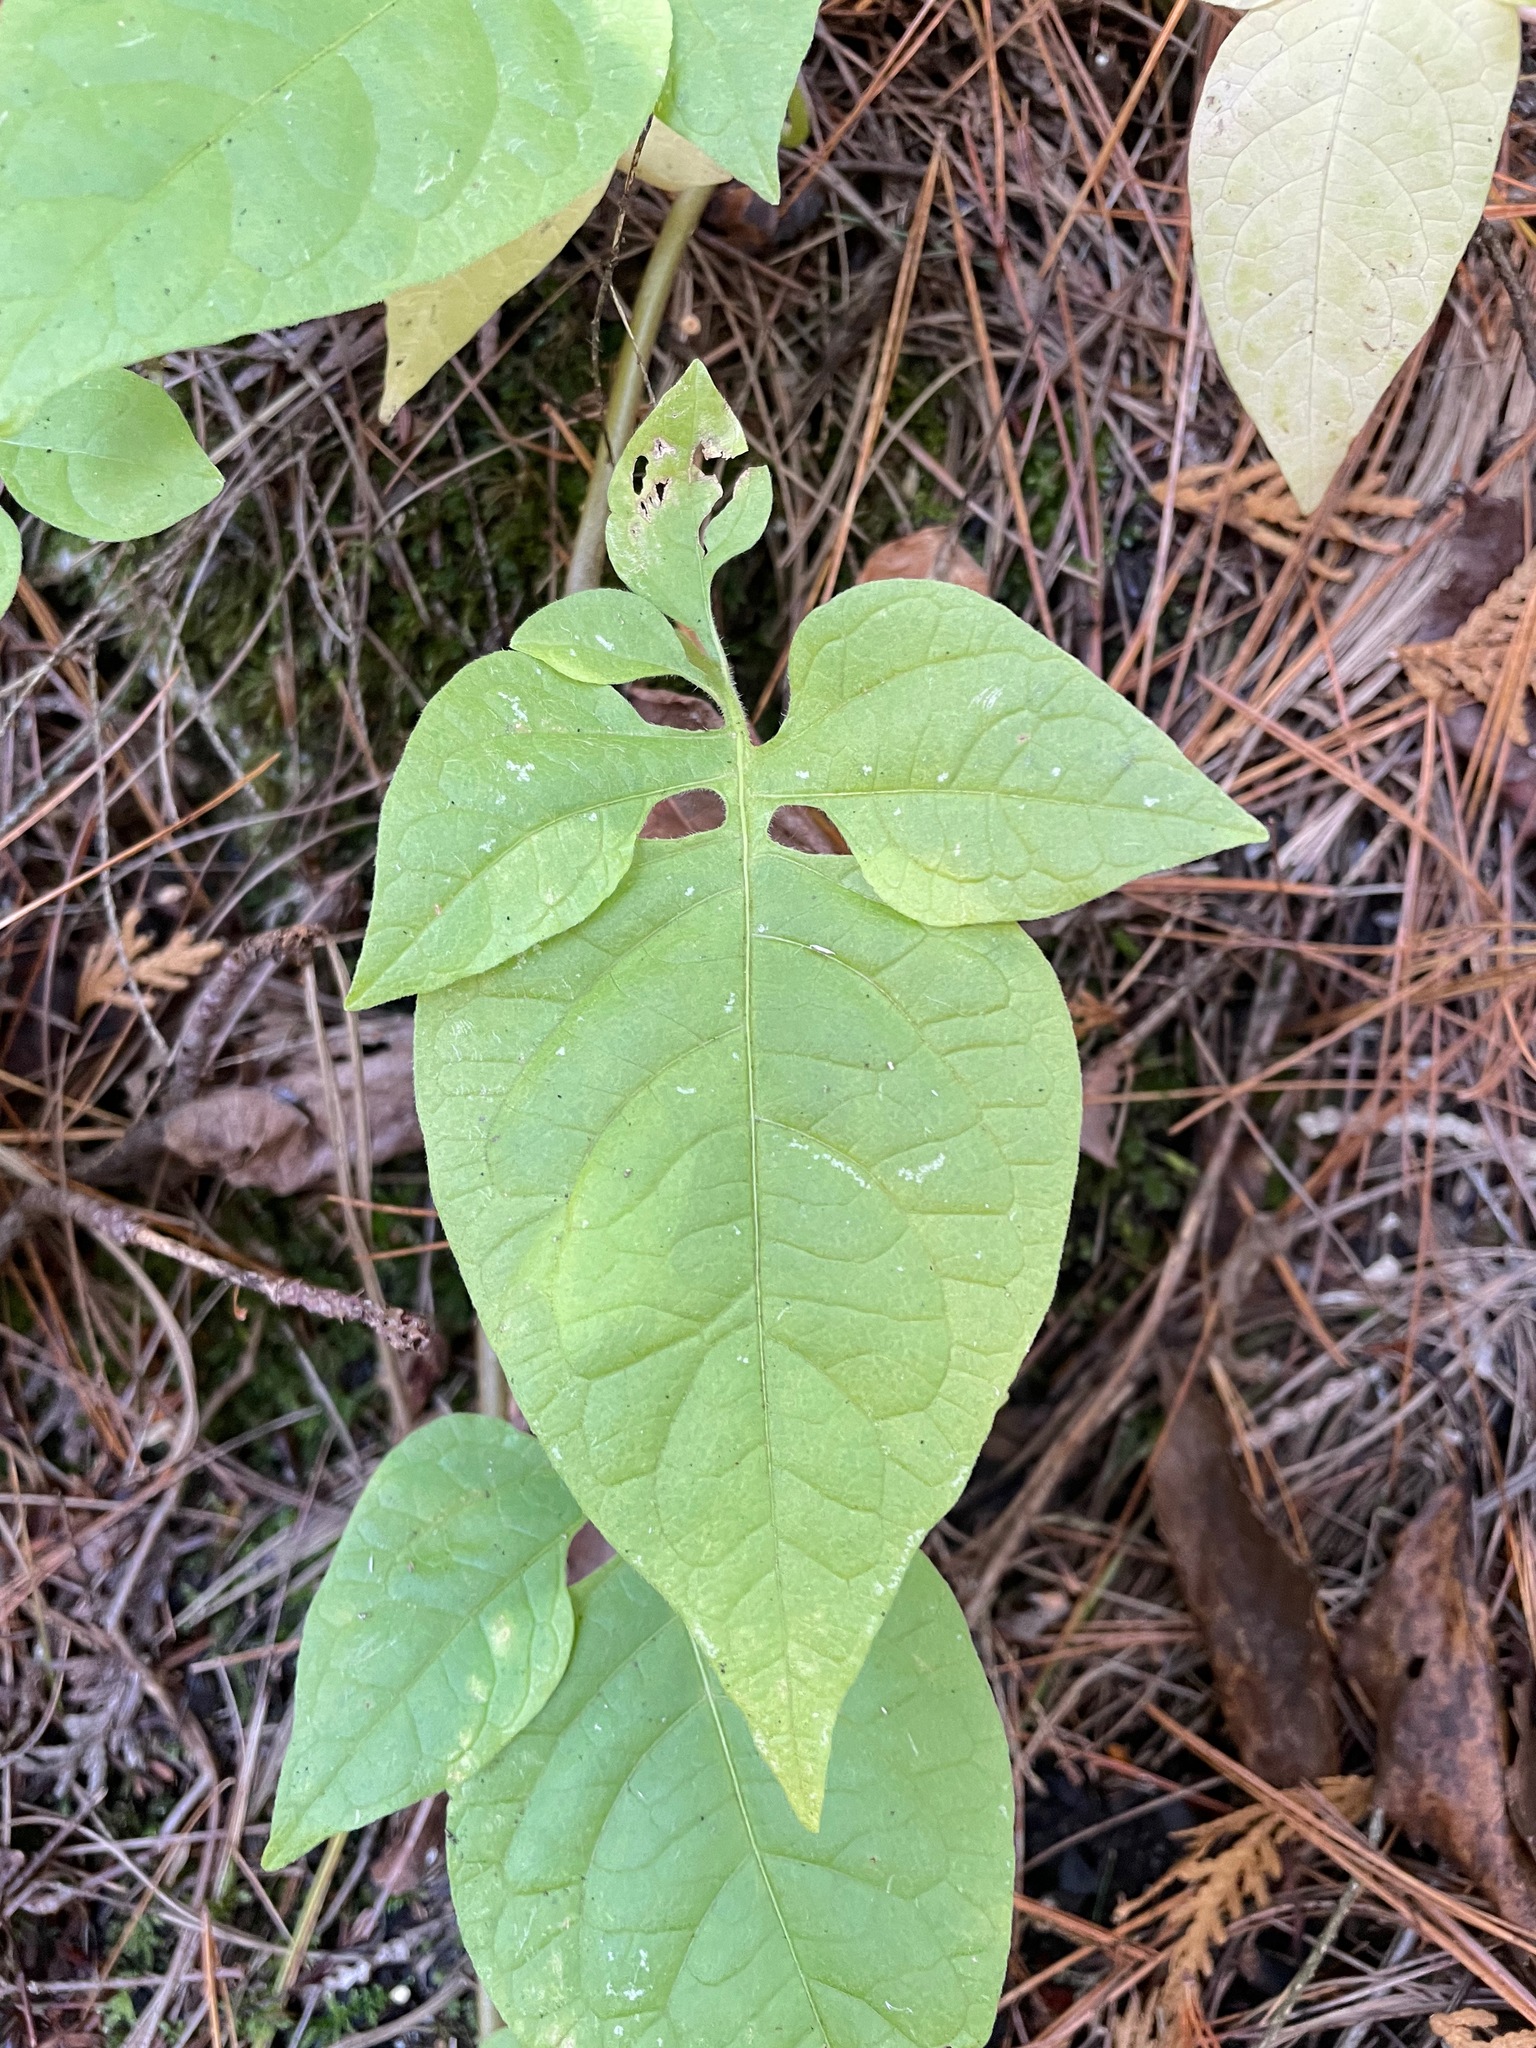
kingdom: Plantae
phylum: Tracheophyta
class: Magnoliopsida
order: Solanales
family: Solanaceae
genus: Solanum
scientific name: Solanum dulcamara
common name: Climbing nightshade
